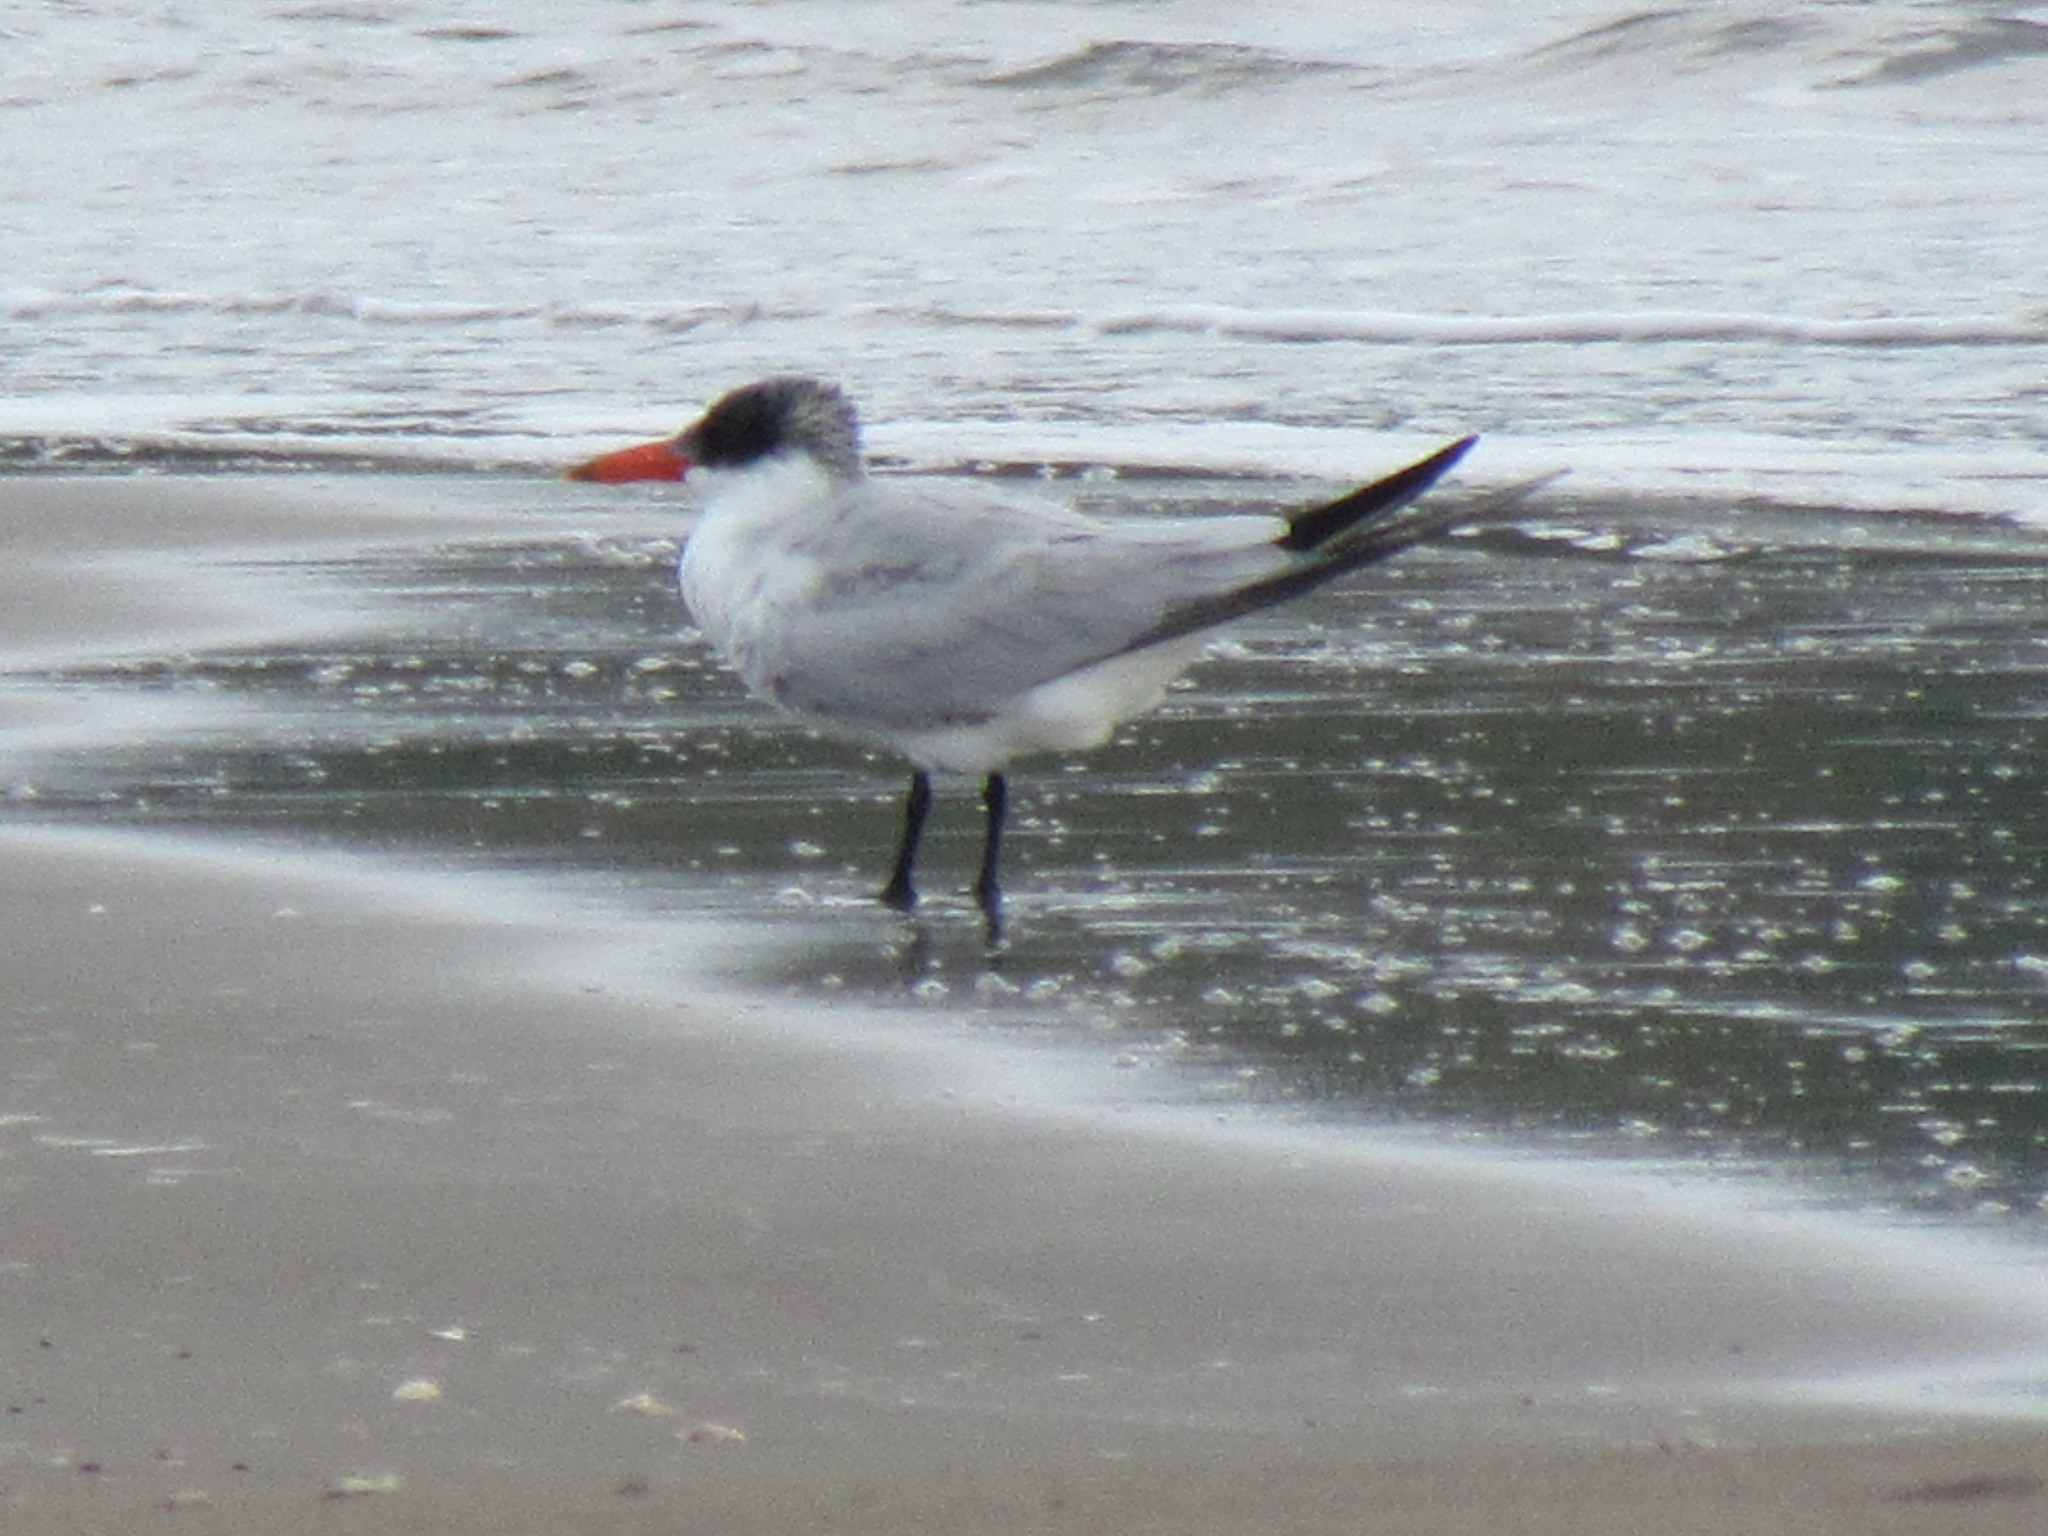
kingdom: Animalia
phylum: Chordata
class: Aves
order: Charadriiformes
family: Laridae
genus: Hydroprogne
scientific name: Hydroprogne caspia
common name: Caspian tern
